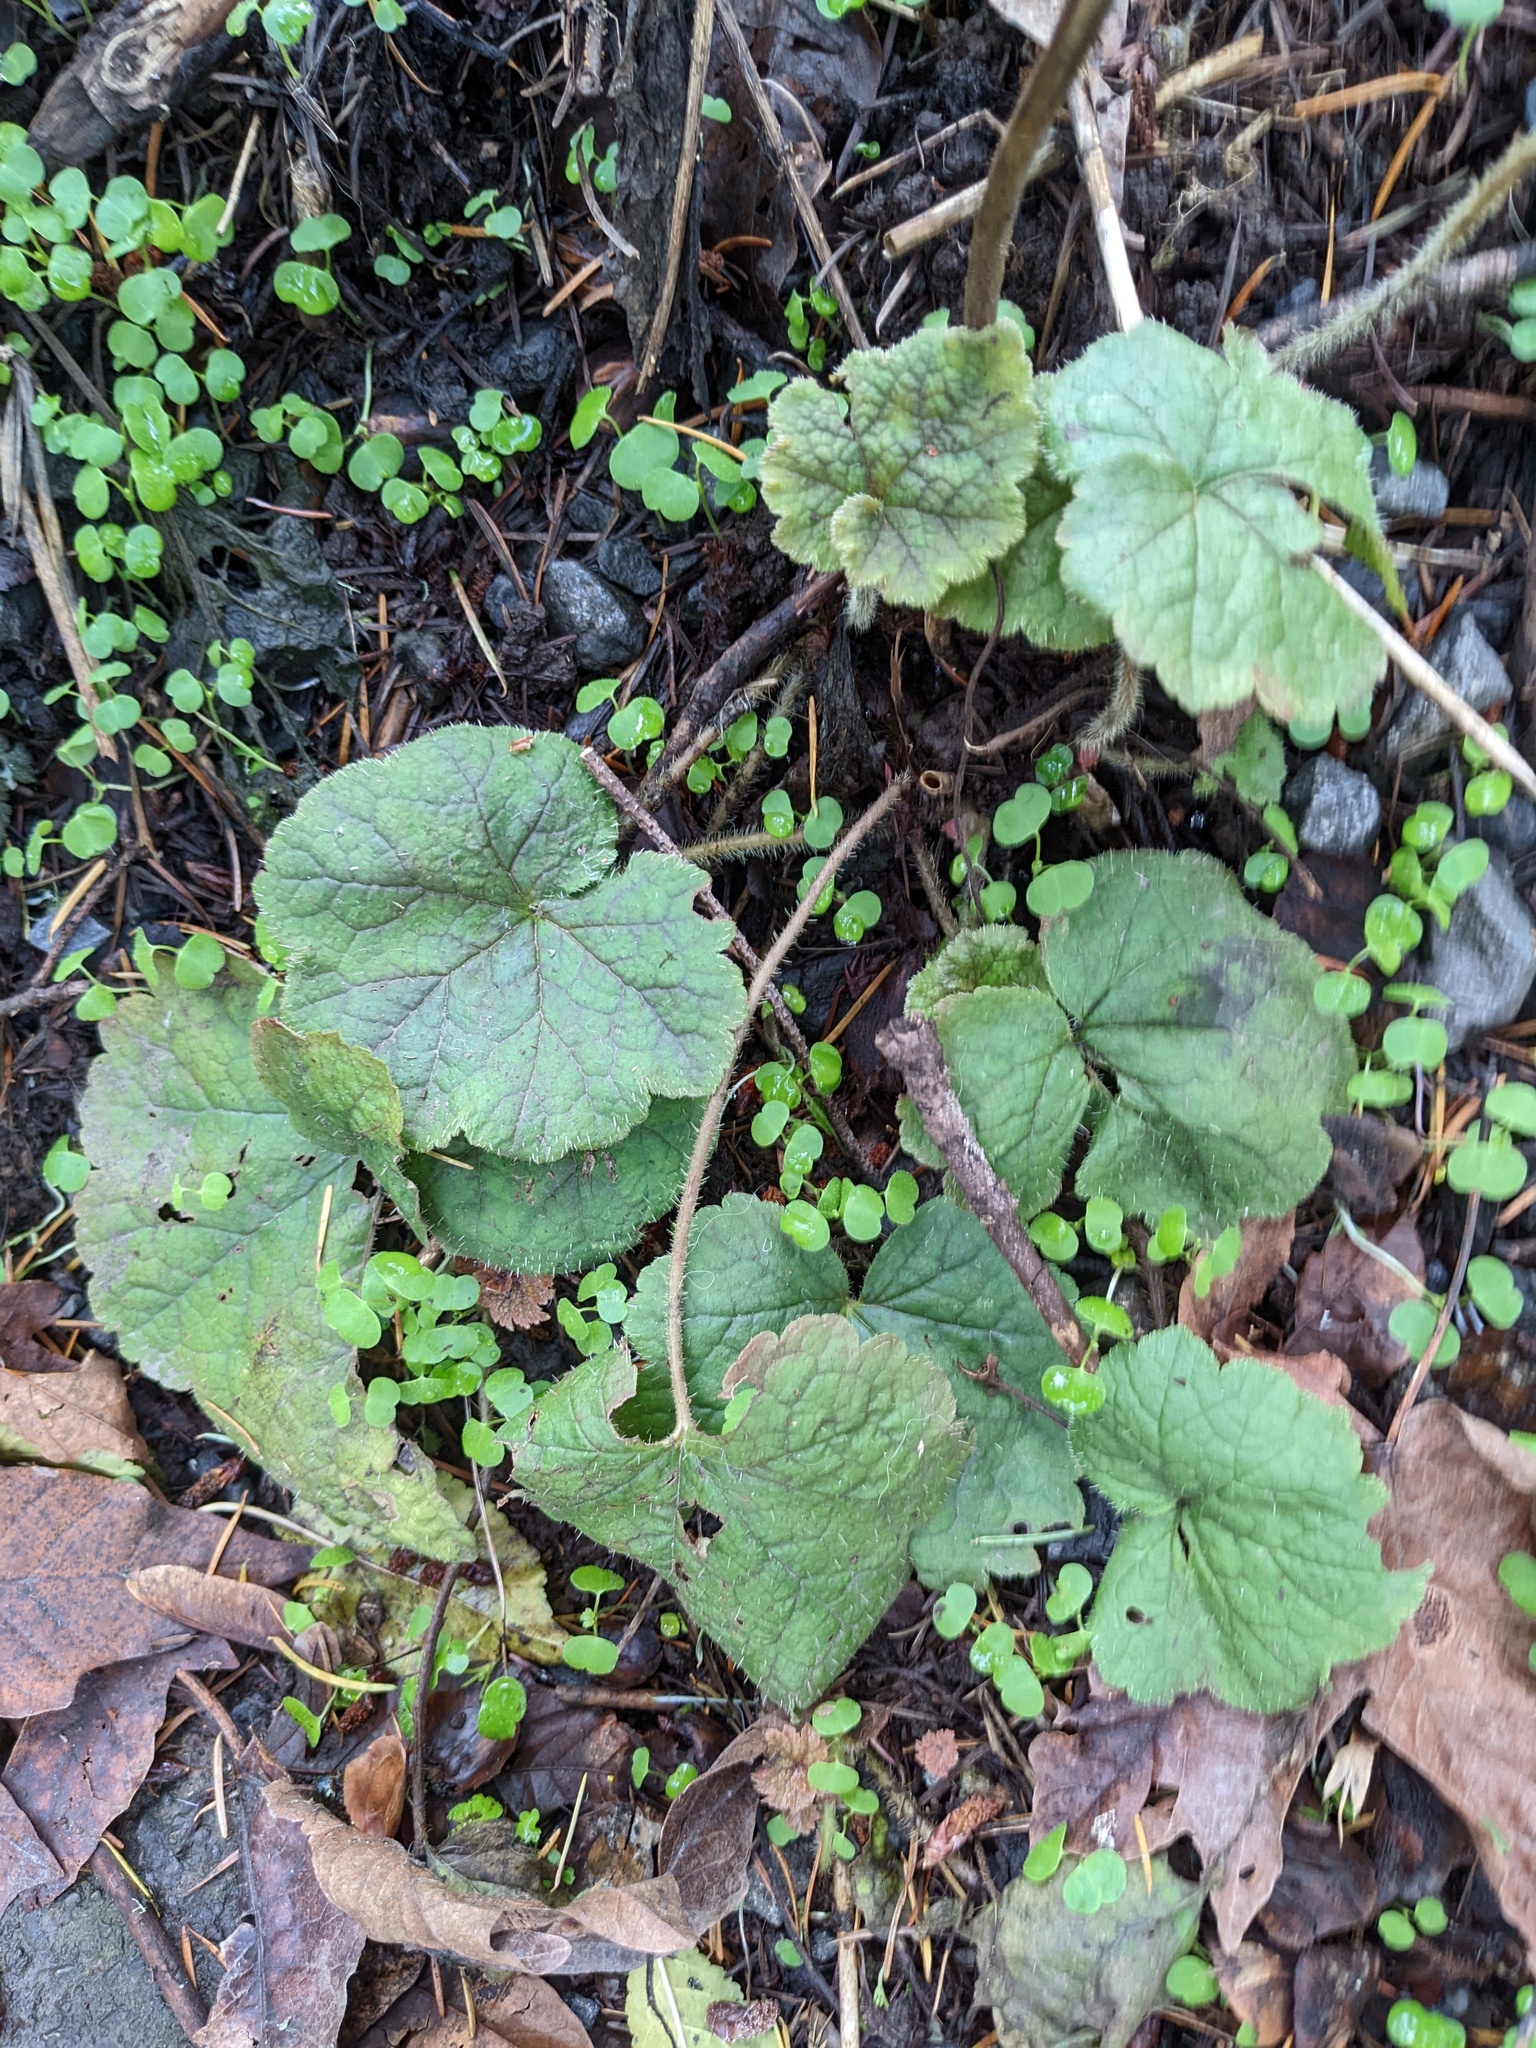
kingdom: Plantae
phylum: Tracheophyta
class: Magnoliopsida
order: Saxifragales
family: Saxifragaceae
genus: Tellima
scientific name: Tellima grandiflora
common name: Fringecups
